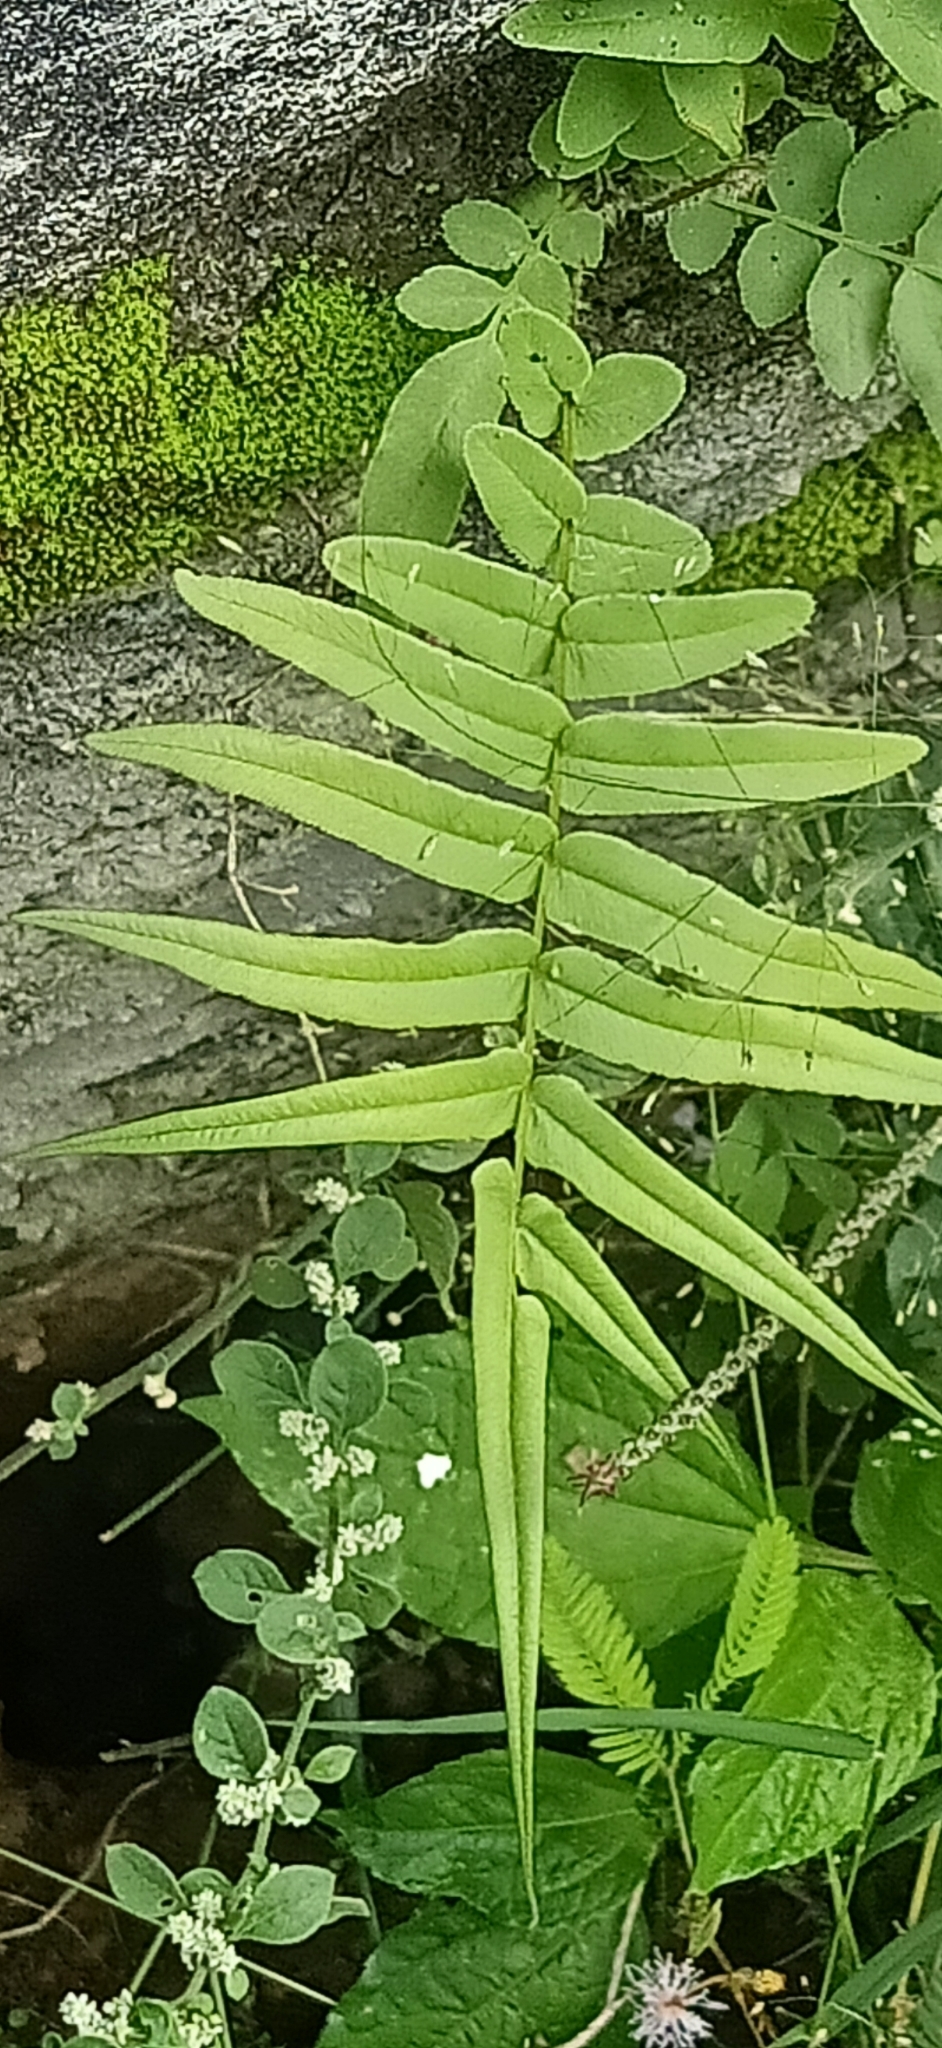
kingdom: Plantae
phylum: Tracheophyta
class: Polypodiopsida
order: Polypodiales
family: Pteridaceae
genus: Pteris
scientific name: Pteris vittata
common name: Ladder brake
